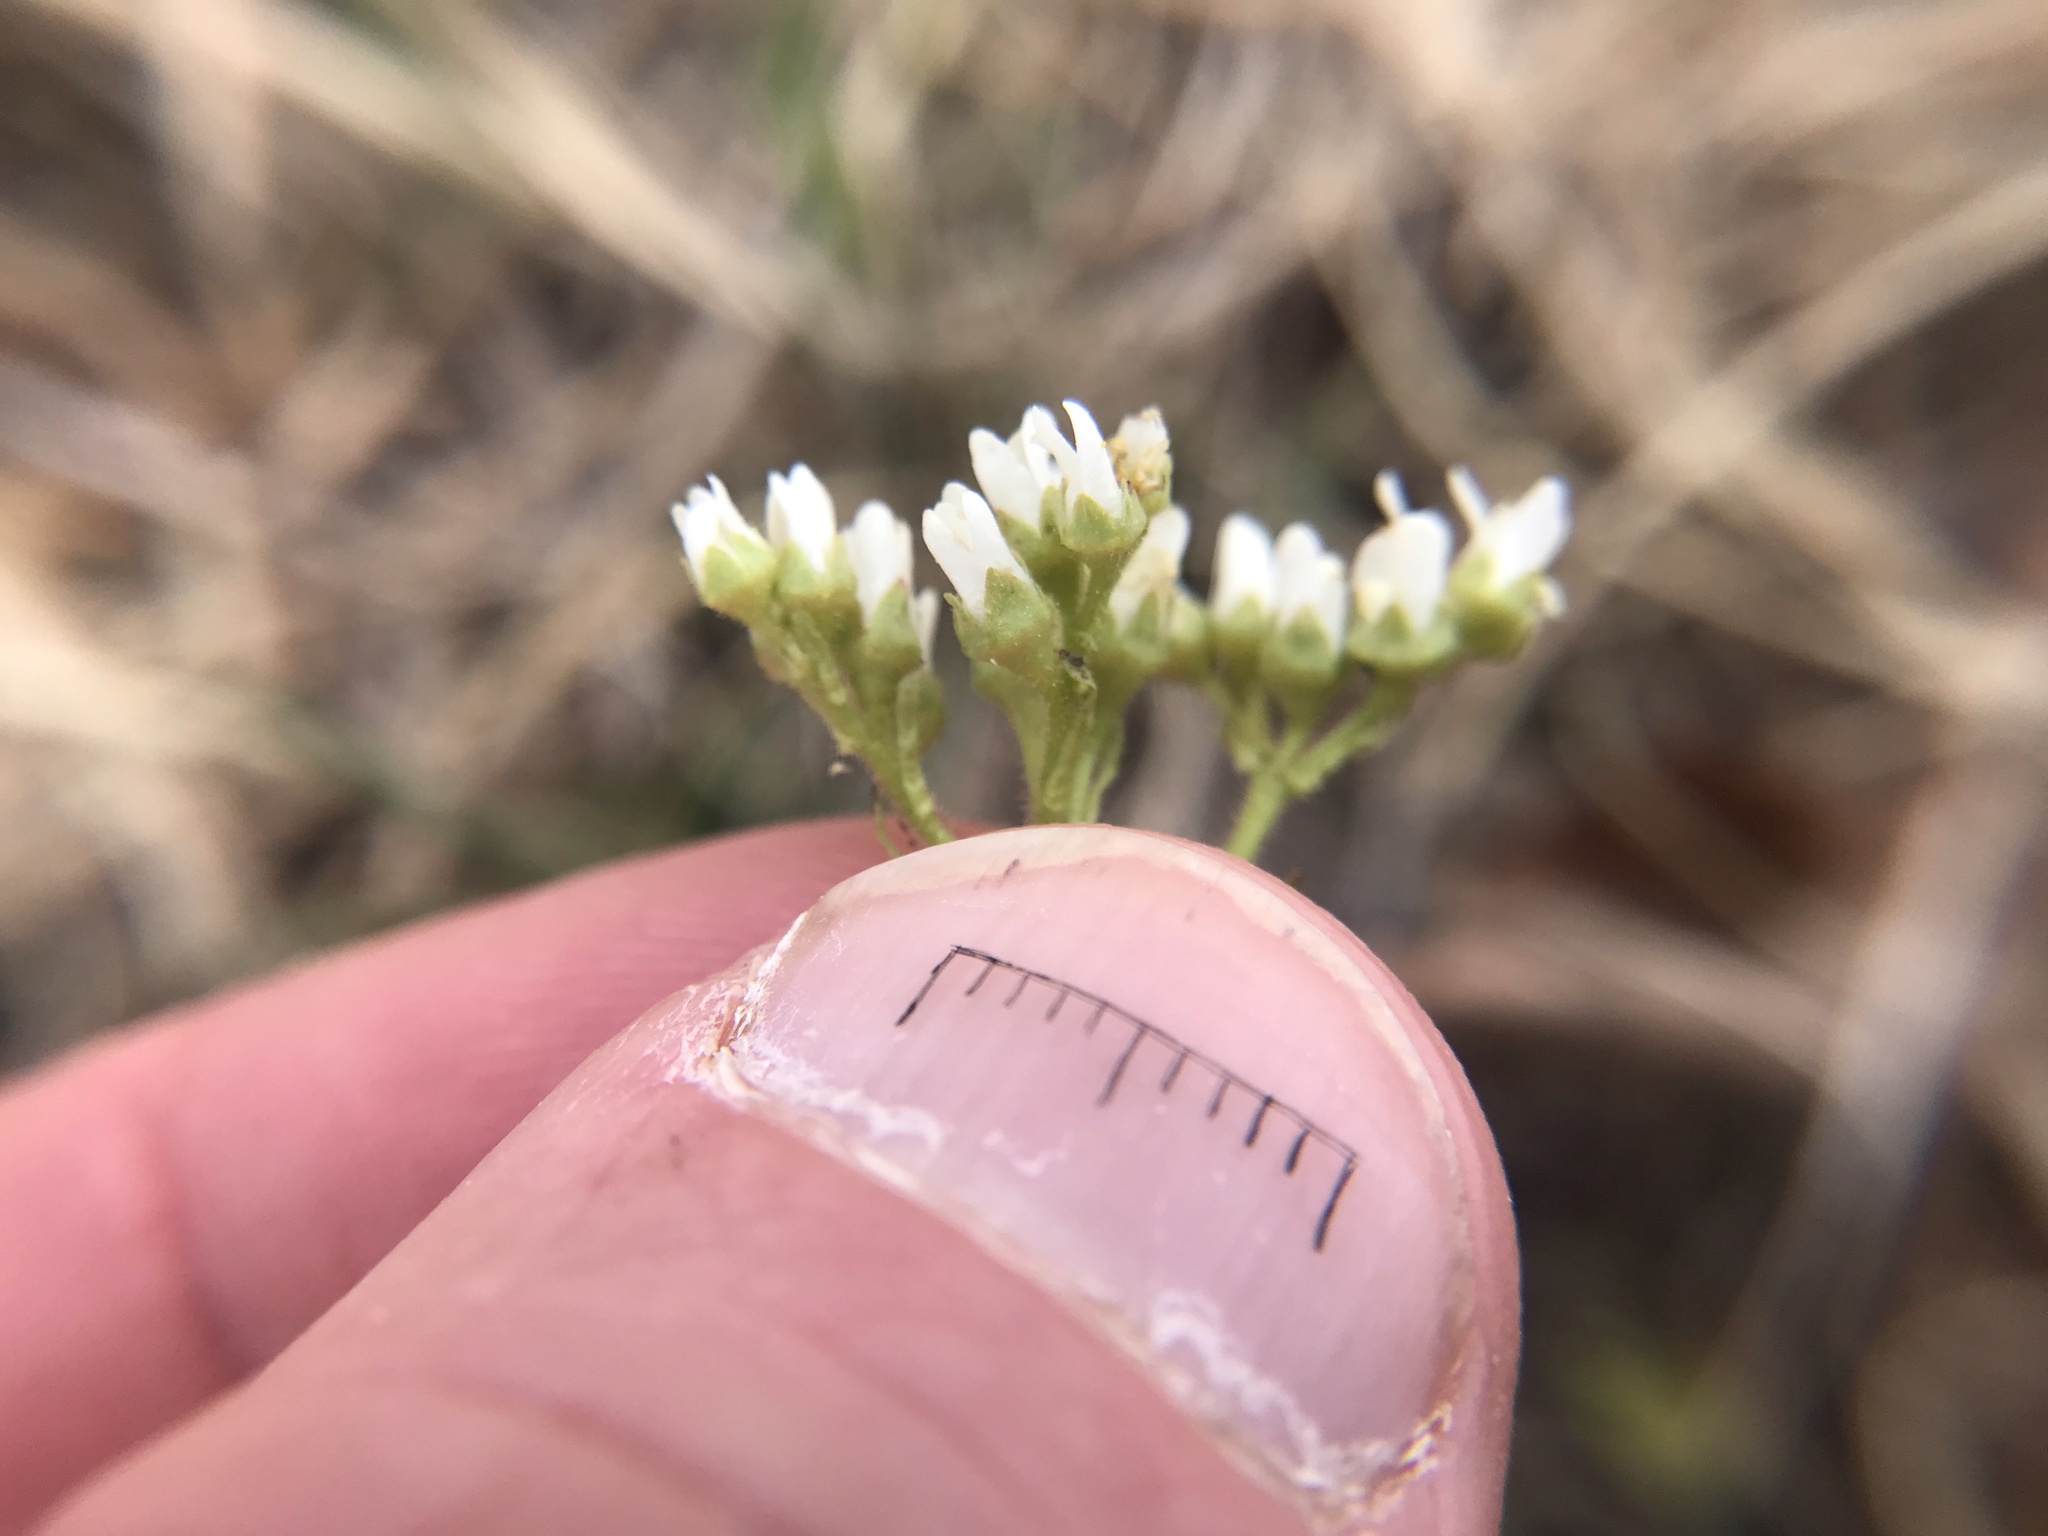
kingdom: Plantae
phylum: Tracheophyta
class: Magnoliopsida
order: Saxifragales
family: Saxifragaceae
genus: Micranthes
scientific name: Micranthes virginiensis
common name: Early saxifrage
